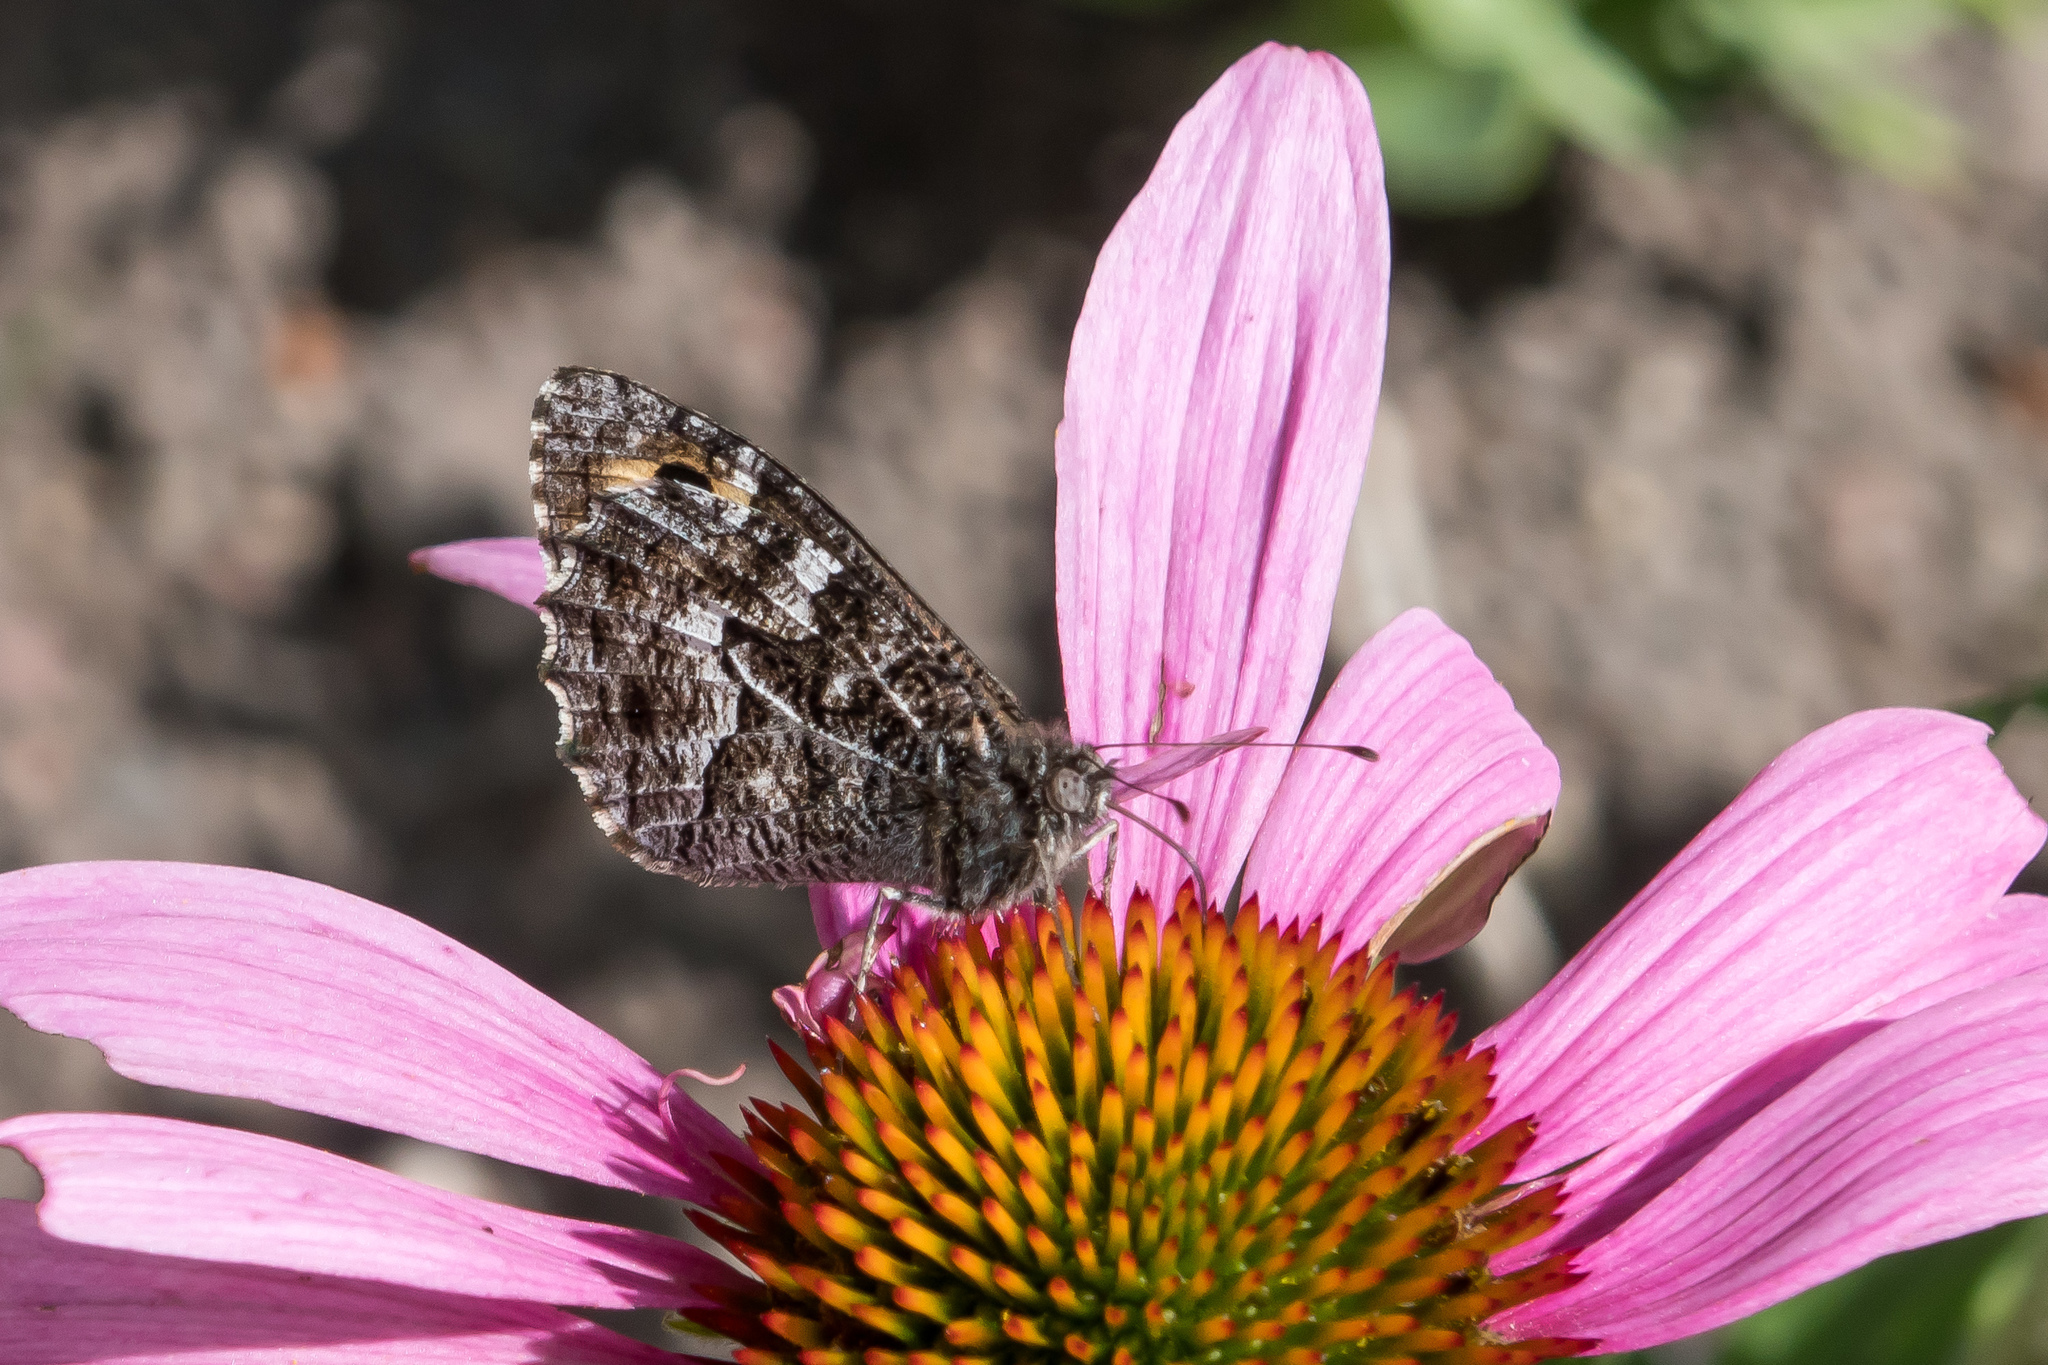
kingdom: Animalia
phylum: Arthropoda
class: Insecta
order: Lepidoptera
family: Nymphalidae
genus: Hipparchia
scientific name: Hipparchia semele
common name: Grayling
